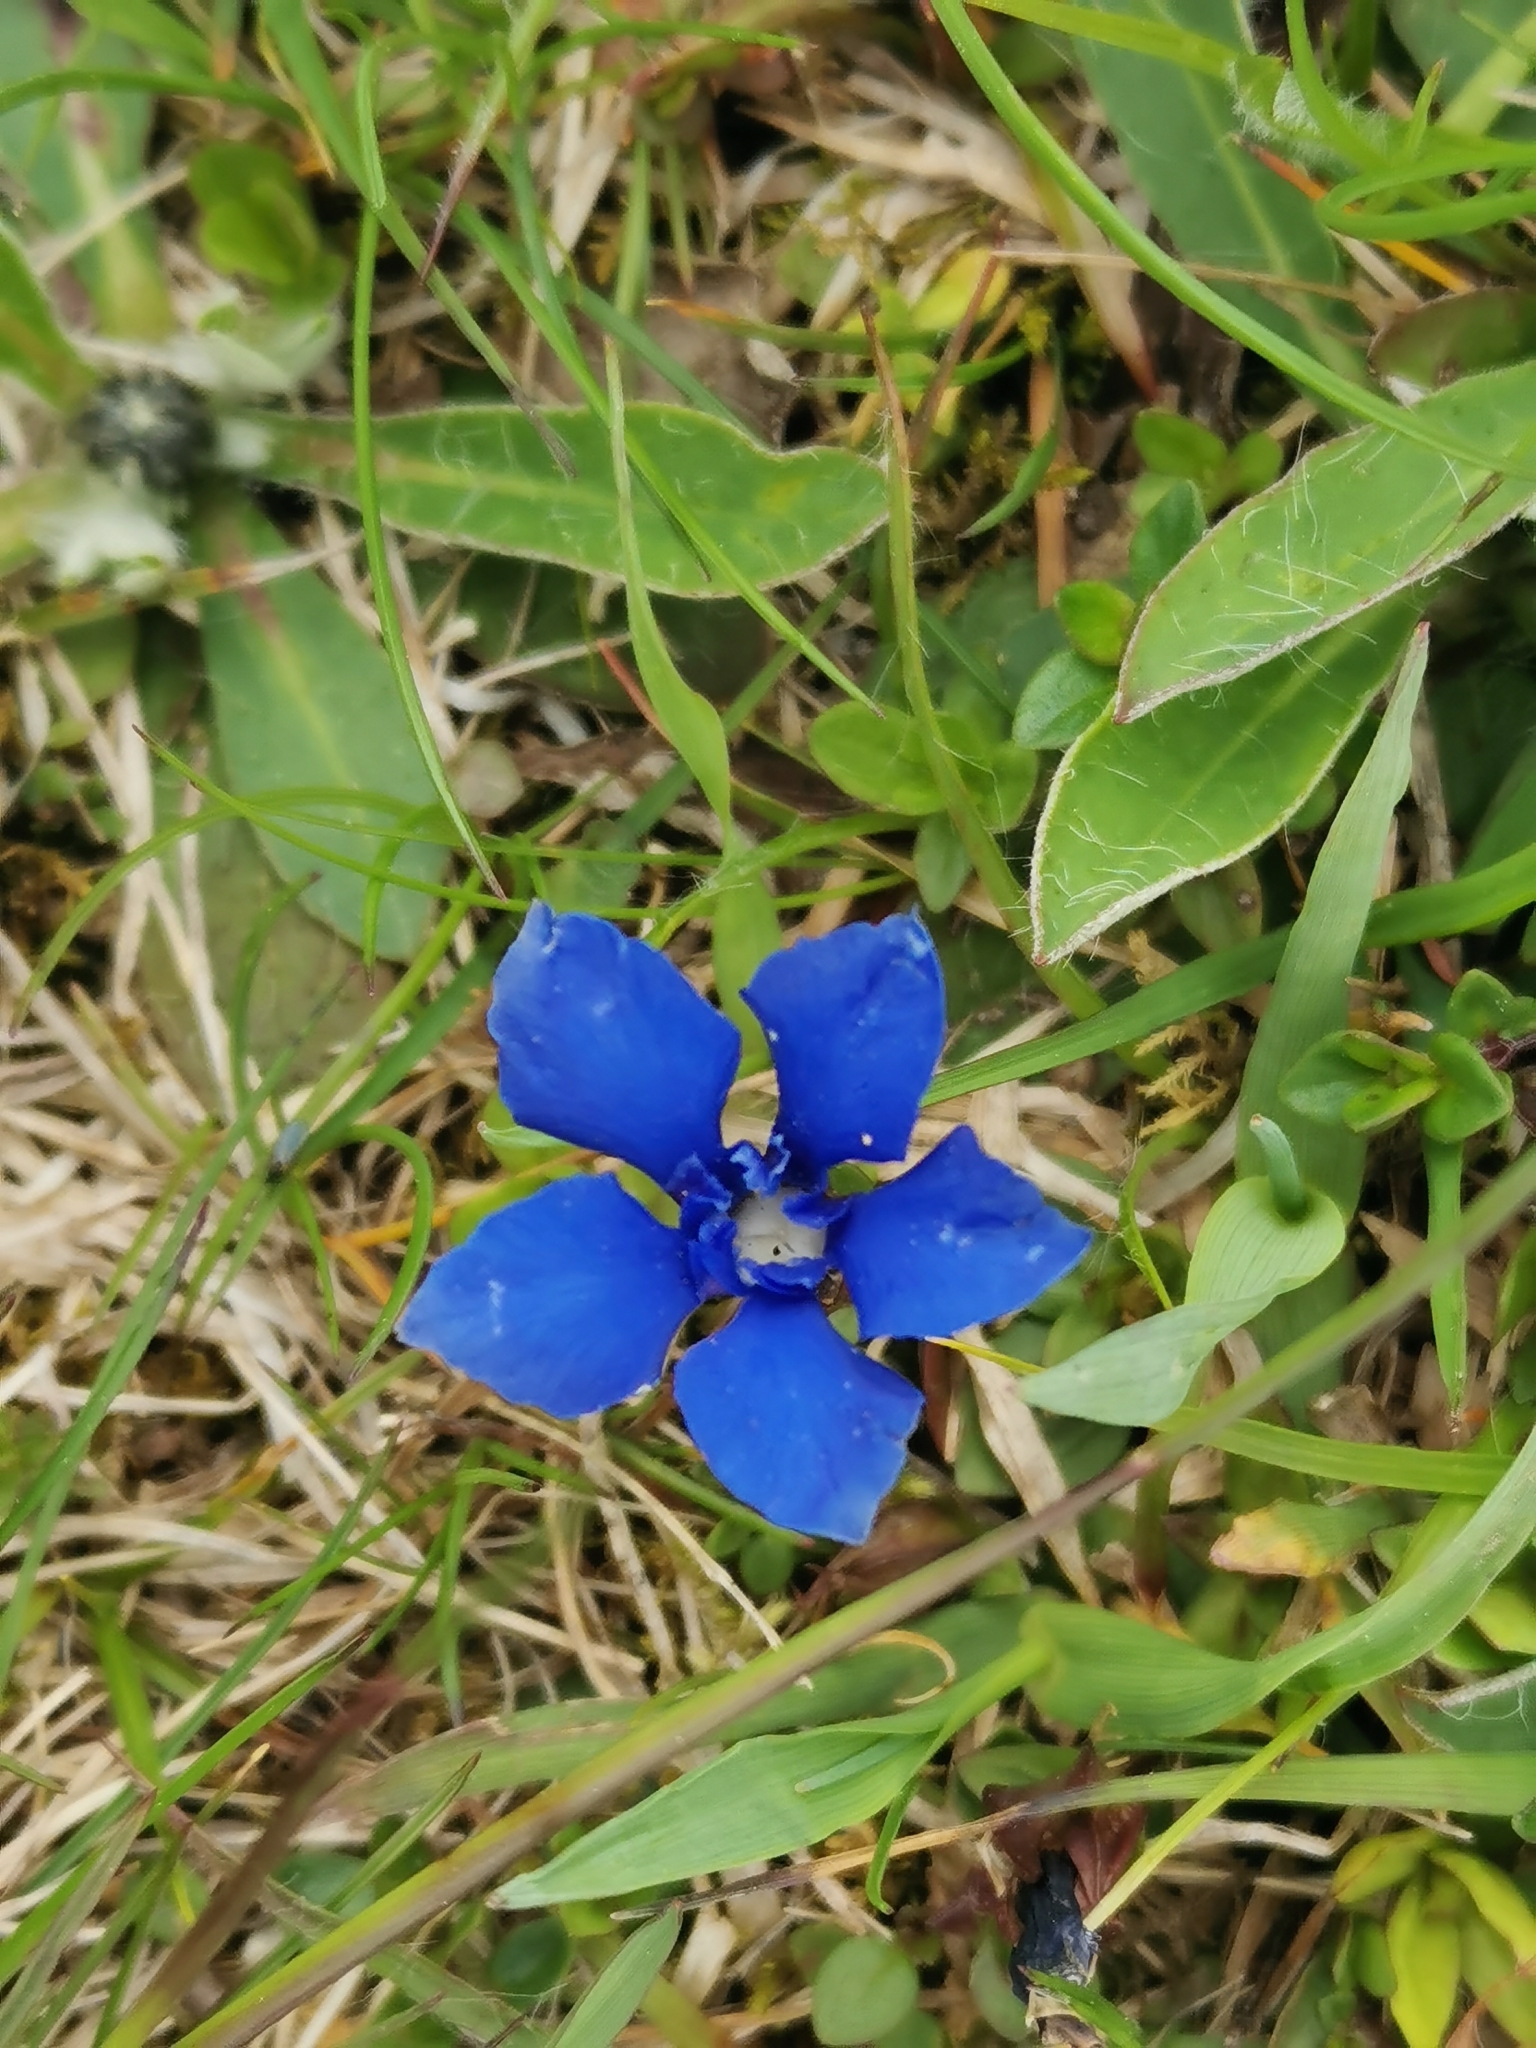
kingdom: Plantae
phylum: Tracheophyta
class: Magnoliopsida
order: Gentianales
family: Gentianaceae
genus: Gentiana
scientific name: Gentiana verna
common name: Spring gentian
